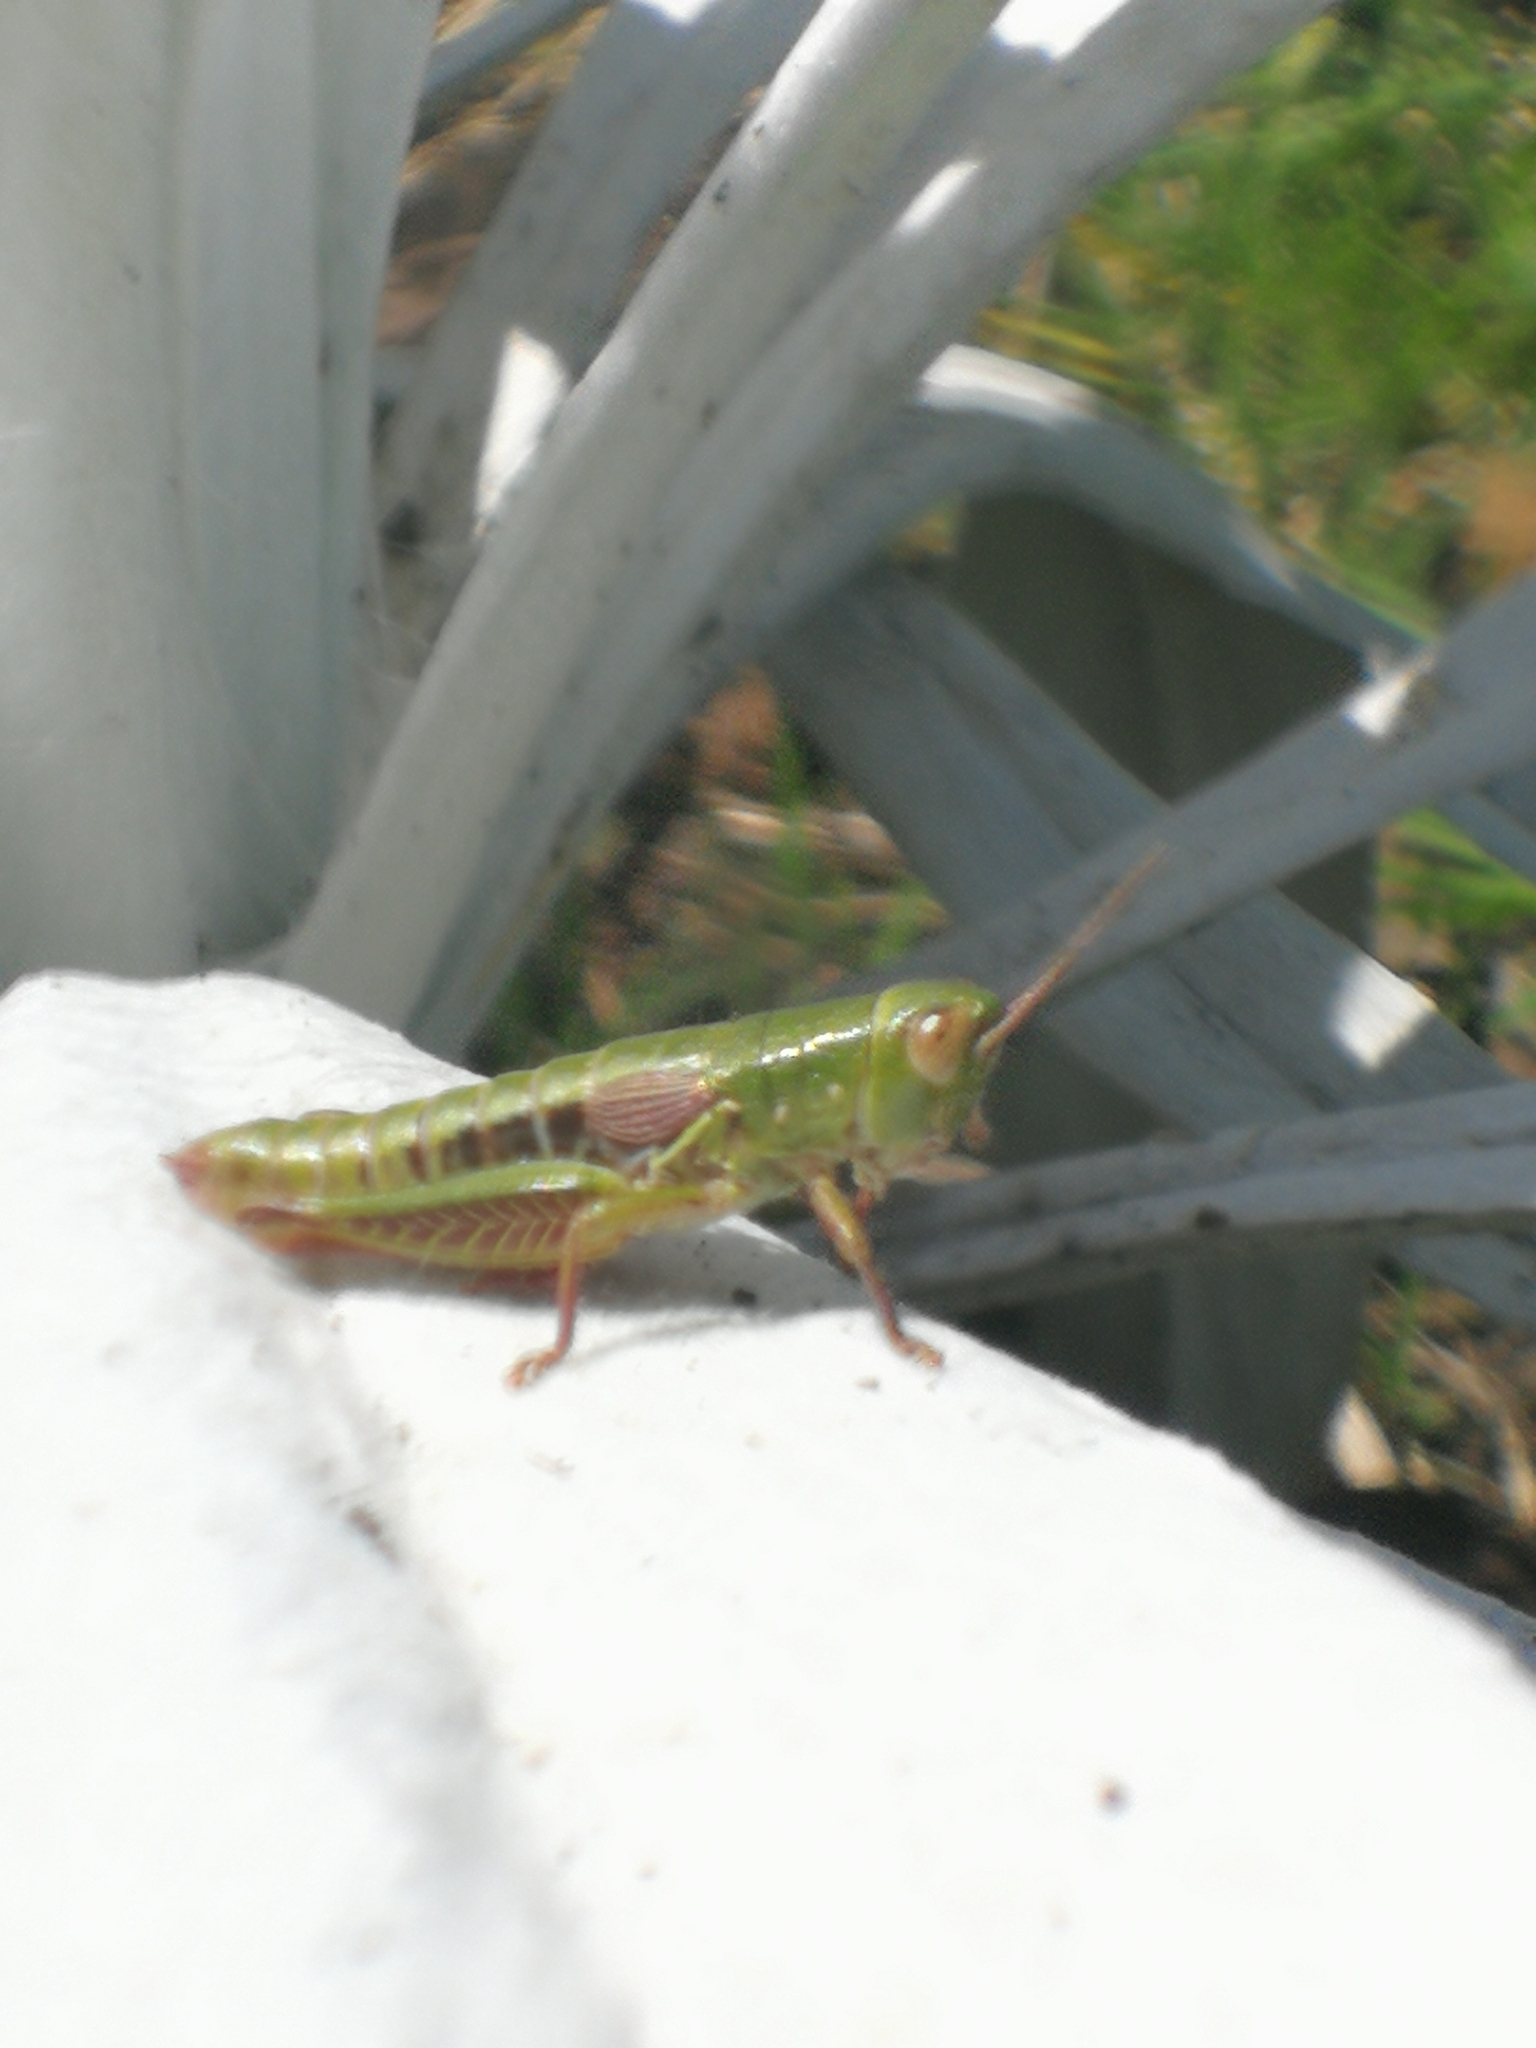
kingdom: Animalia
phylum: Arthropoda
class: Insecta
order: Orthoptera
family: Acrididae
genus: Jivarus
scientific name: Jivarus antisanae
